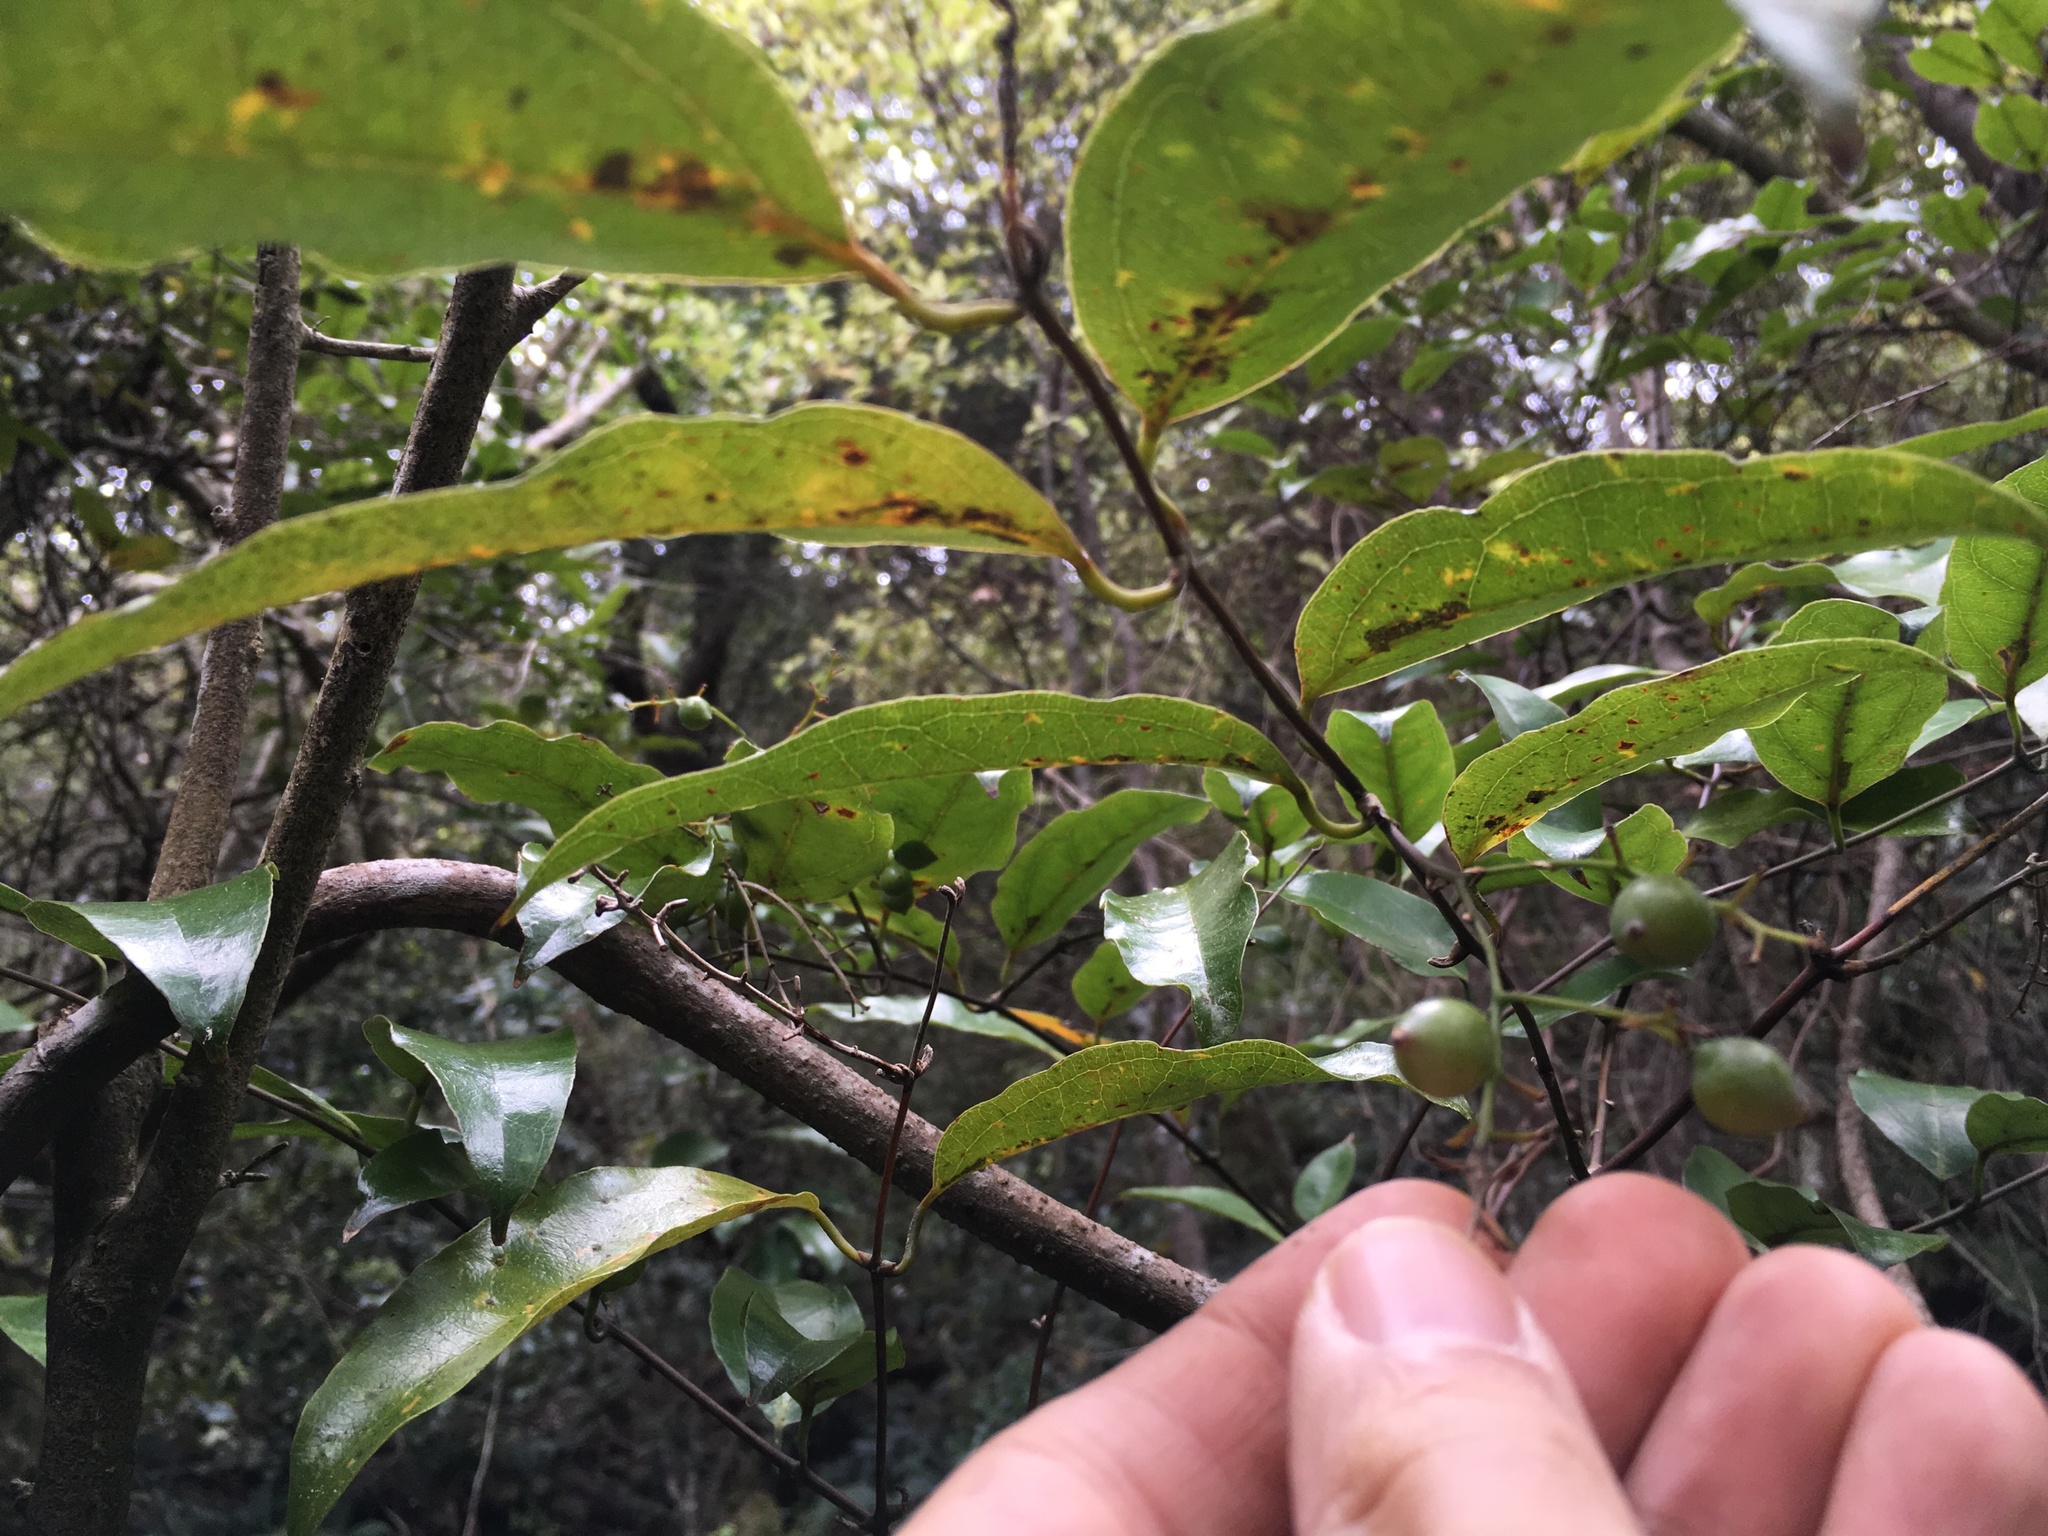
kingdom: Plantae
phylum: Tracheophyta
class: Liliopsida
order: Liliales
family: Ripogonaceae
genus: Ripogonum
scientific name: Ripogonum scandens
